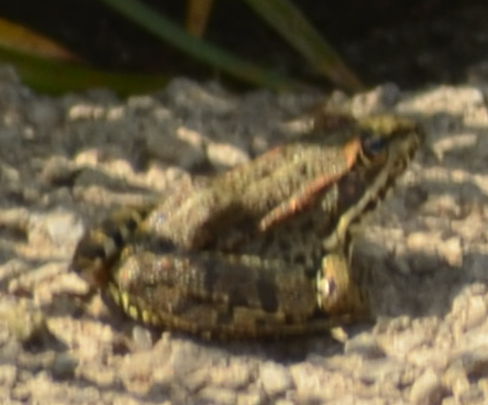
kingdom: Animalia
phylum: Chordata
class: Amphibia
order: Anura
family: Ranidae
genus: Pelophylax
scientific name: Pelophylax perezi
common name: Perez's frog
